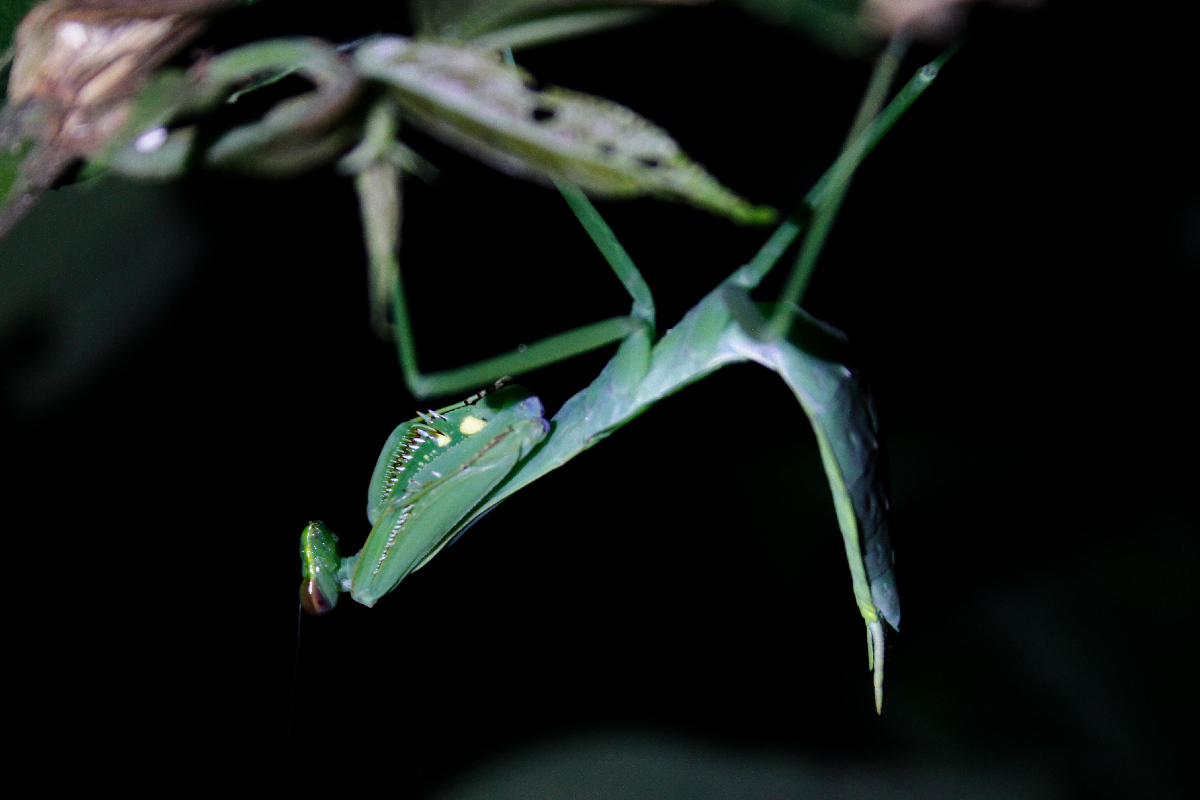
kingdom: Animalia
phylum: Arthropoda
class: Insecta
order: Mantodea
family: Photinaidae
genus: Macromantis
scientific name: Macromantis nicaraguae
